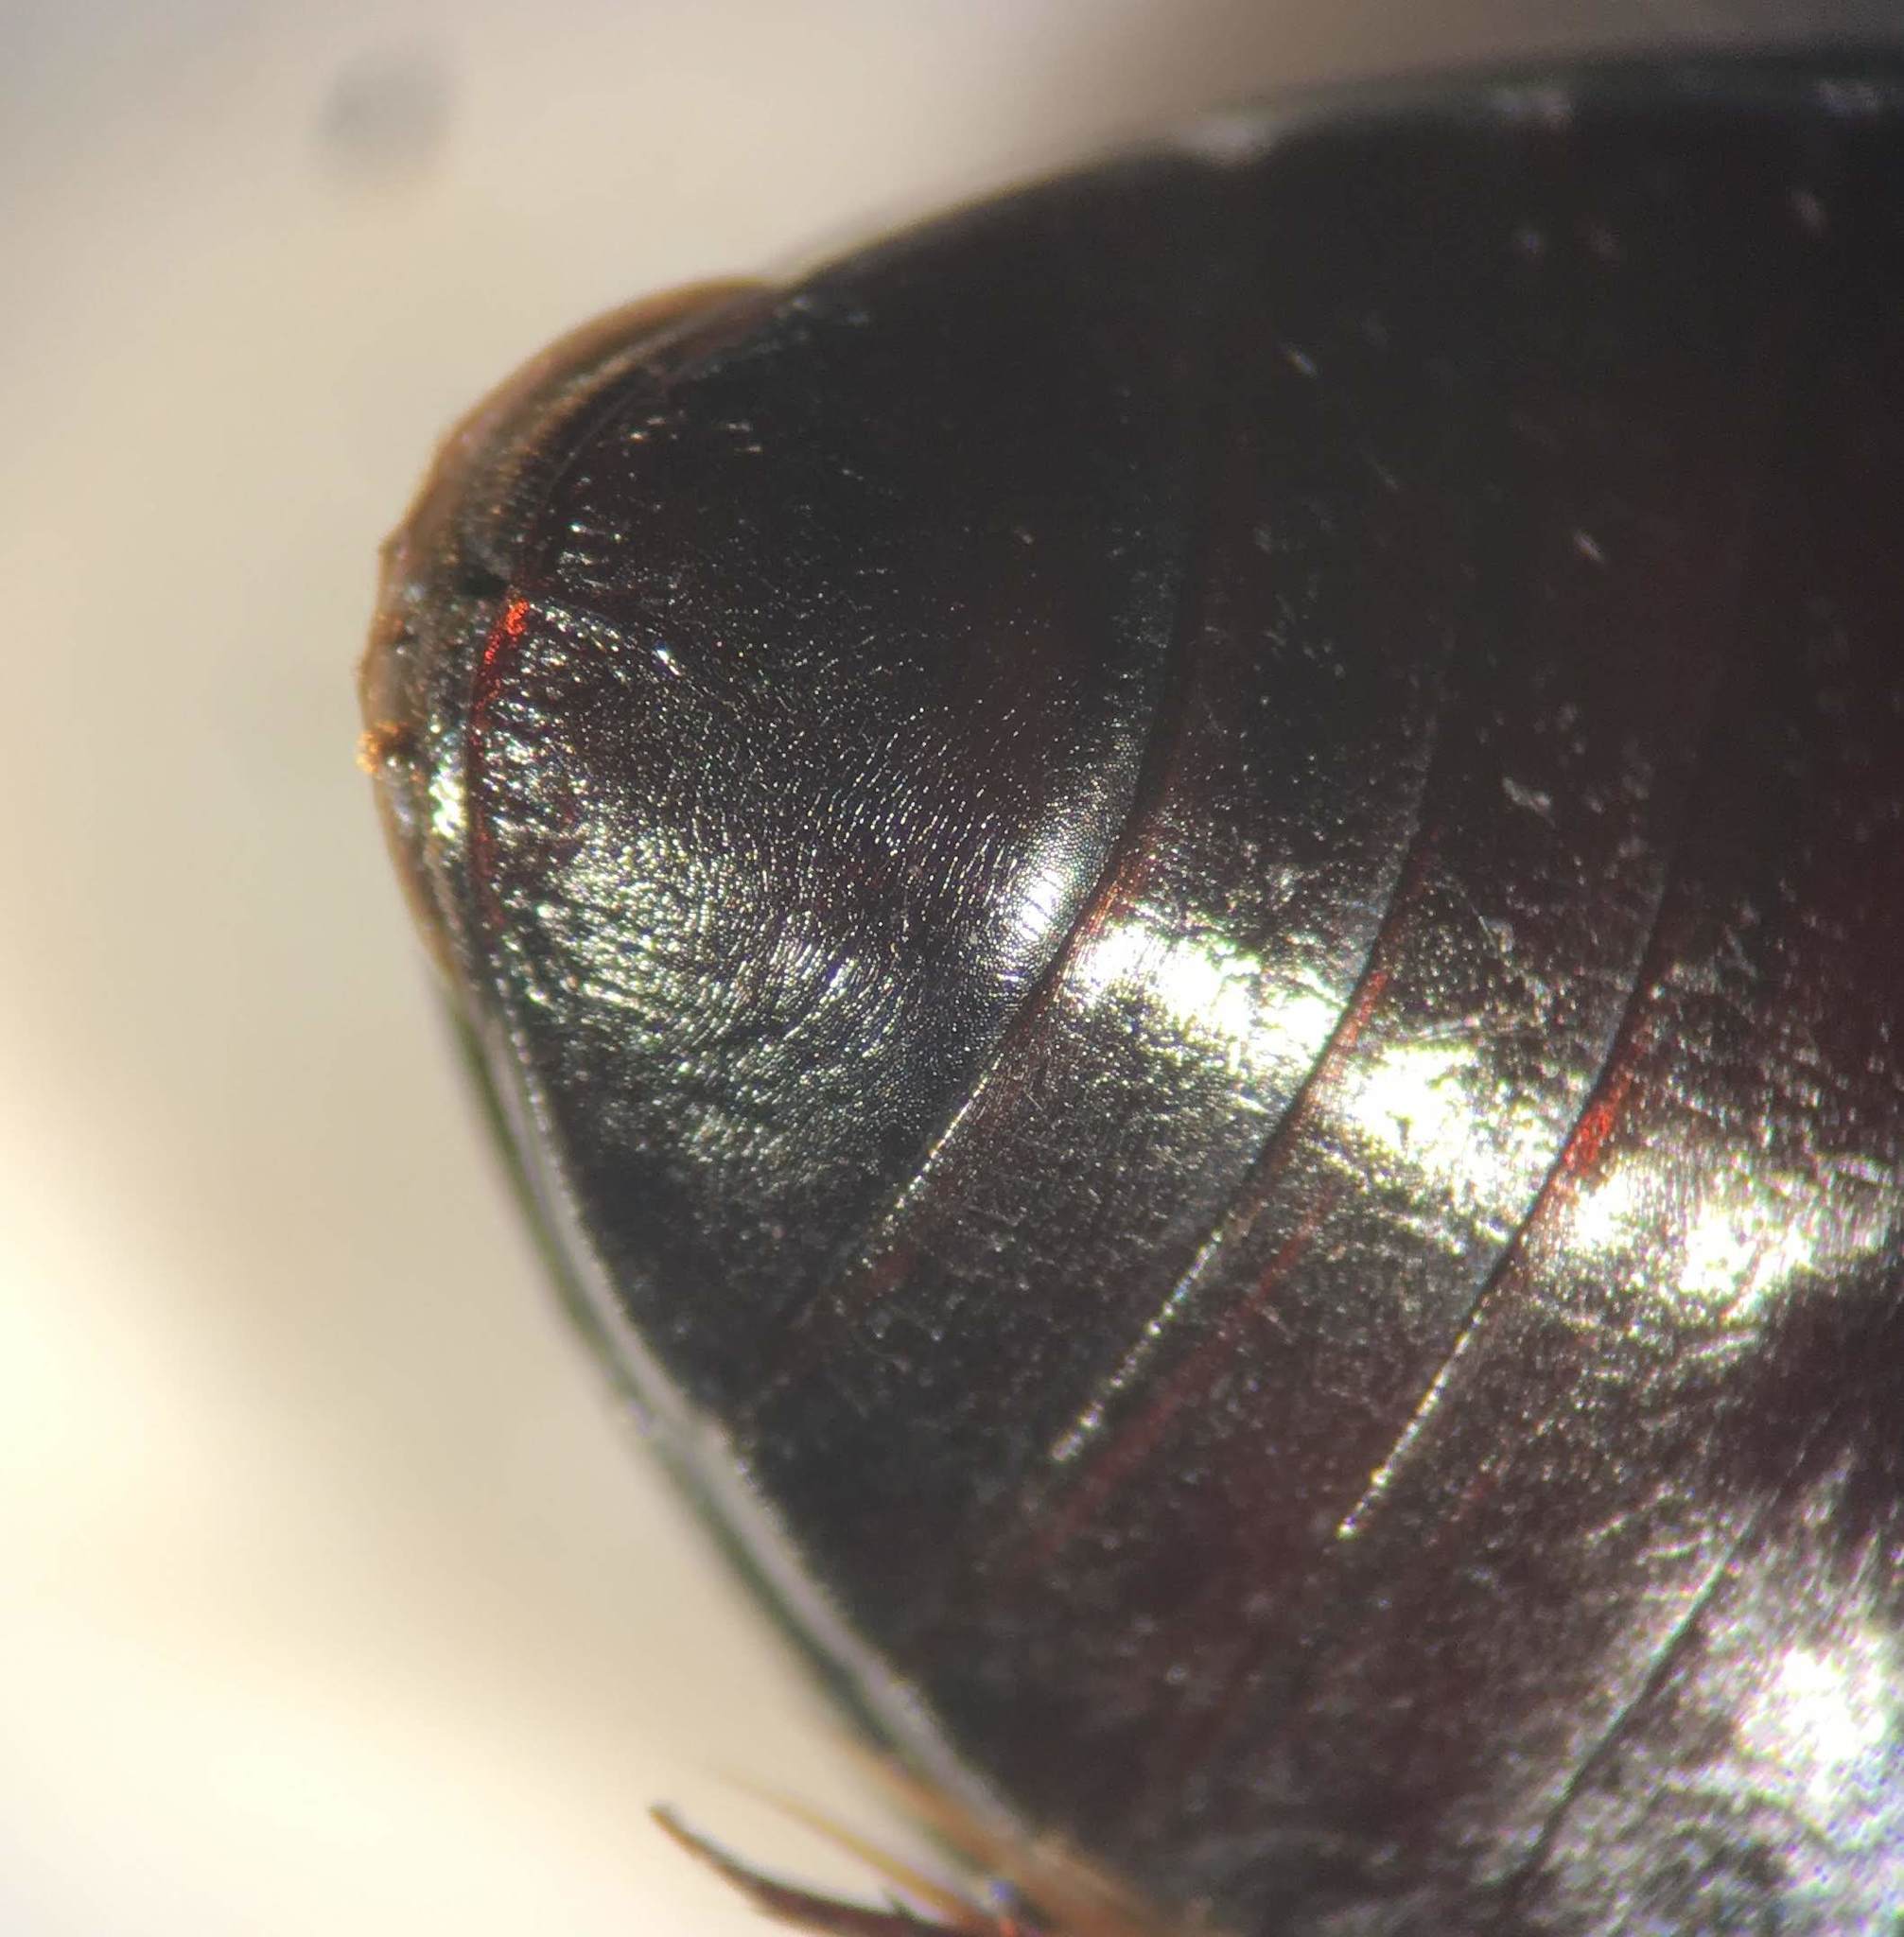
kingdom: Animalia
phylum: Arthropoda
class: Insecta
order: Coleoptera
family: Dytiscidae
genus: Ilybius
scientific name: Ilybius biguttulus
